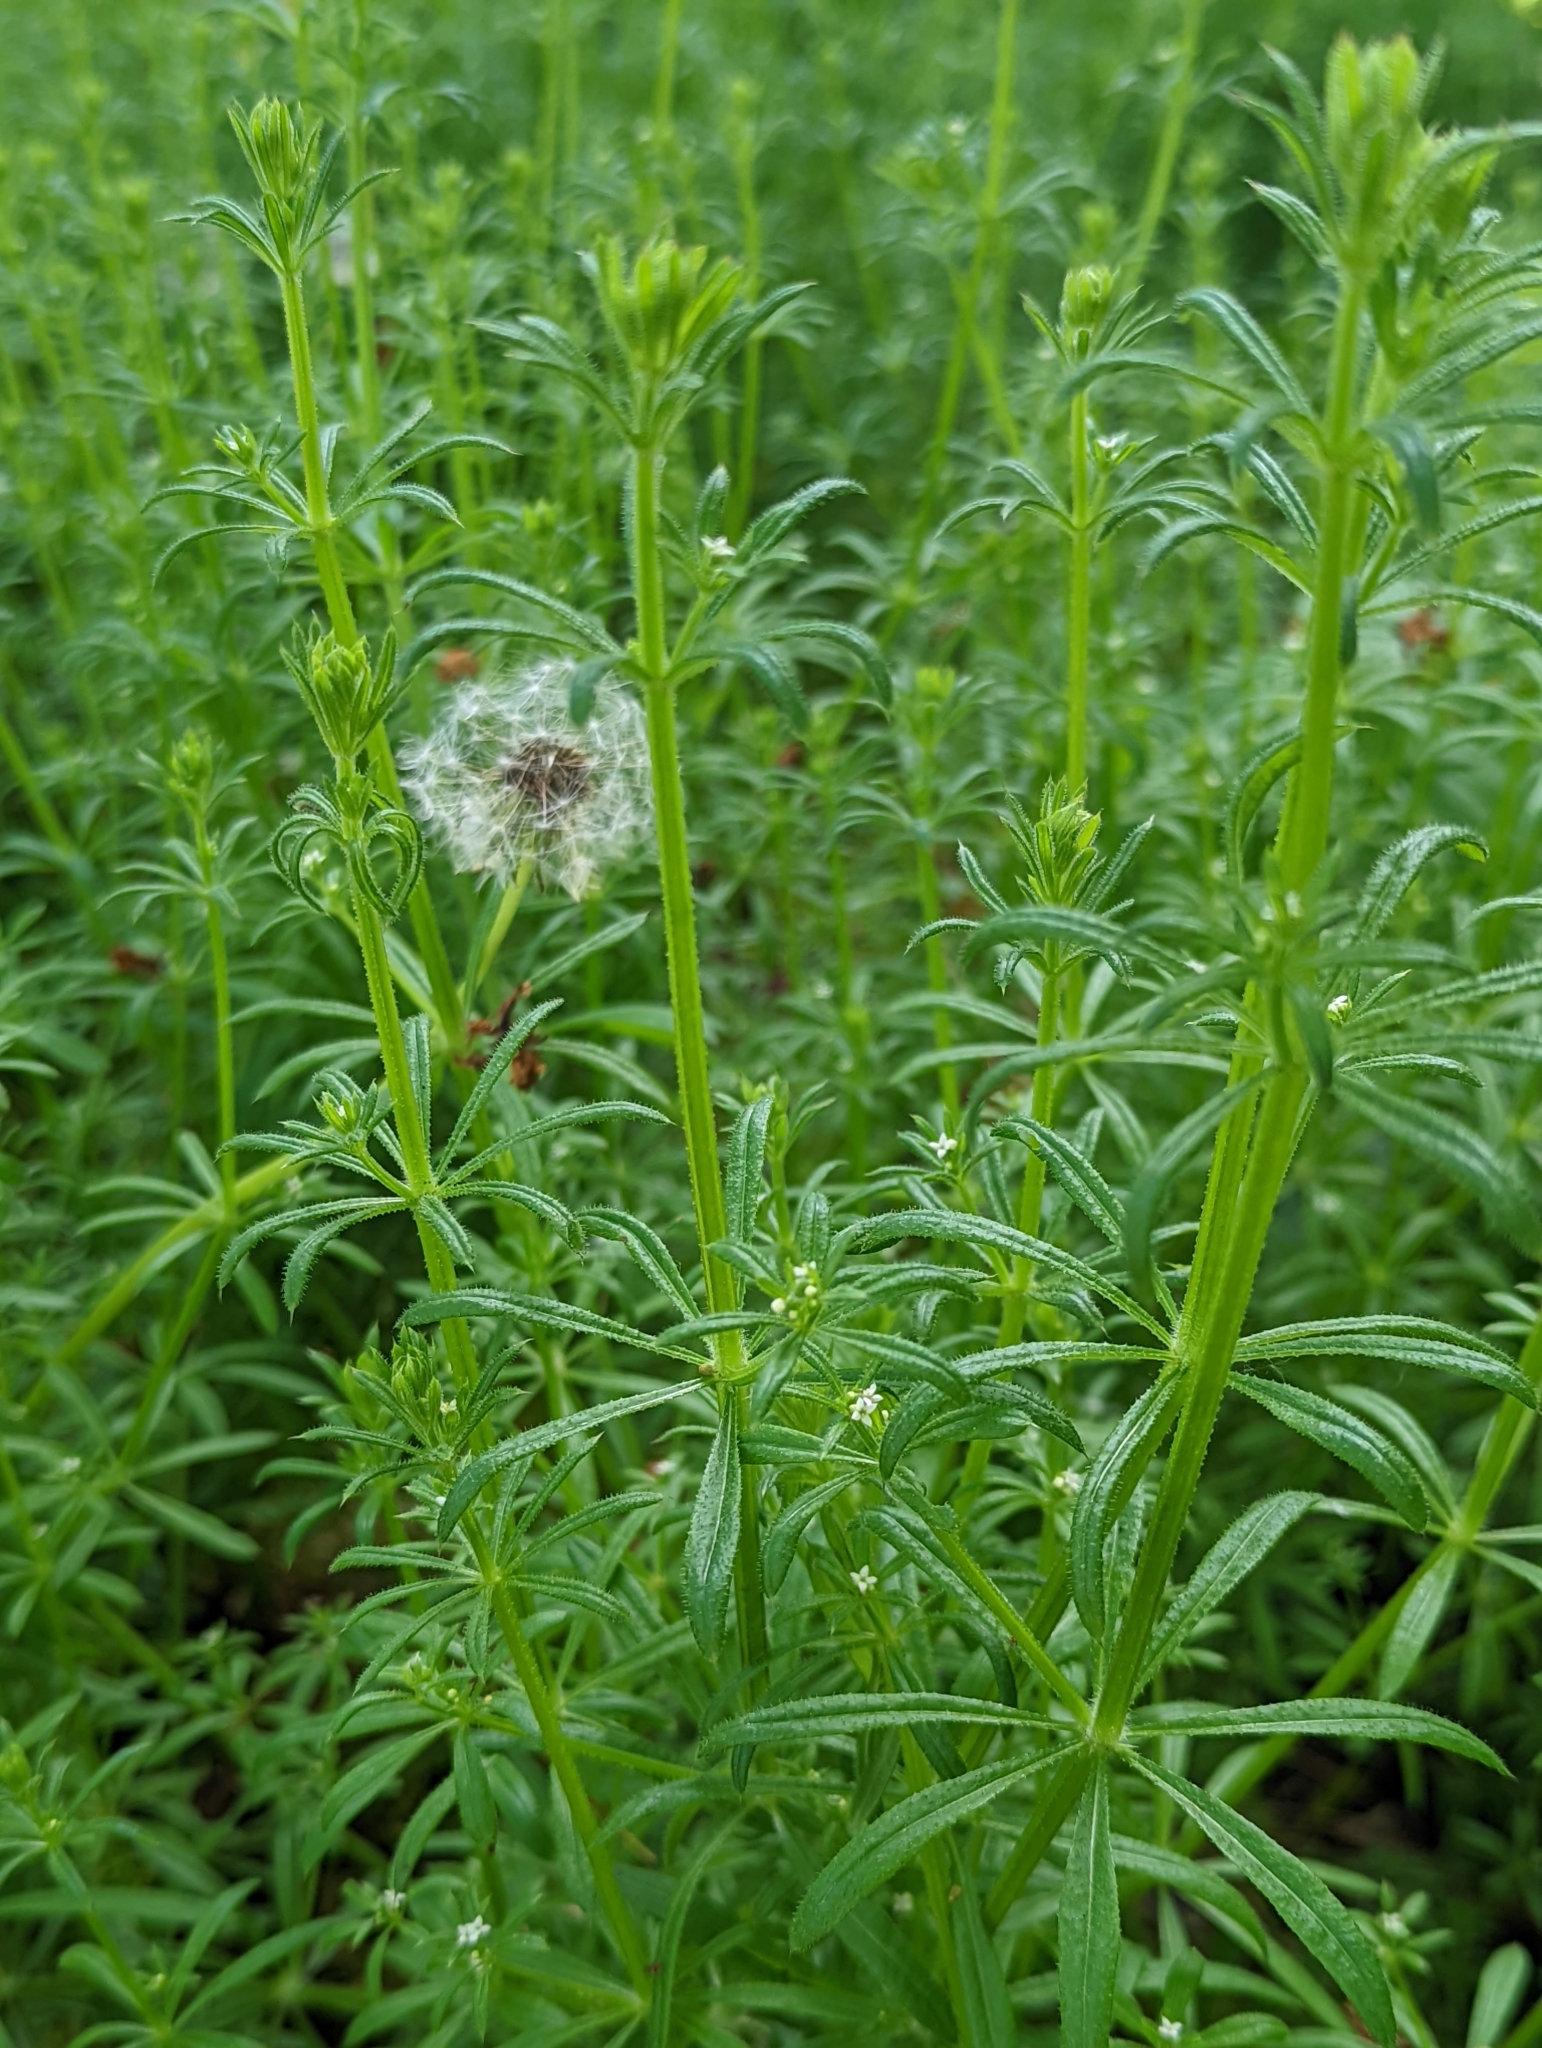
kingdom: Plantae
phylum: Tracheophyta
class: Magnoliopsida
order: Gentianales
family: Rubiaceae
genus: Galium
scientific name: Galium aparine
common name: Cleavers
